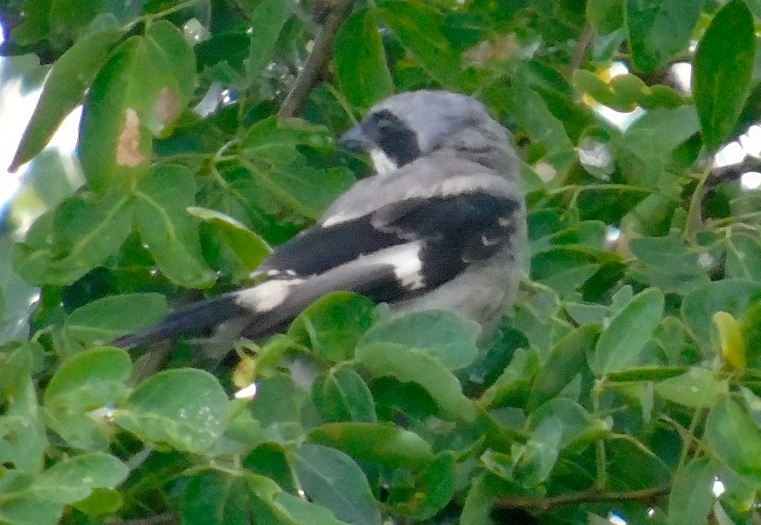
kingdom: Animalia
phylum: Chordata
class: Aves
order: Passeriformes
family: Laniidae
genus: Lanius
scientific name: Lanius ludovicianus
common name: Loggerhead shrike
